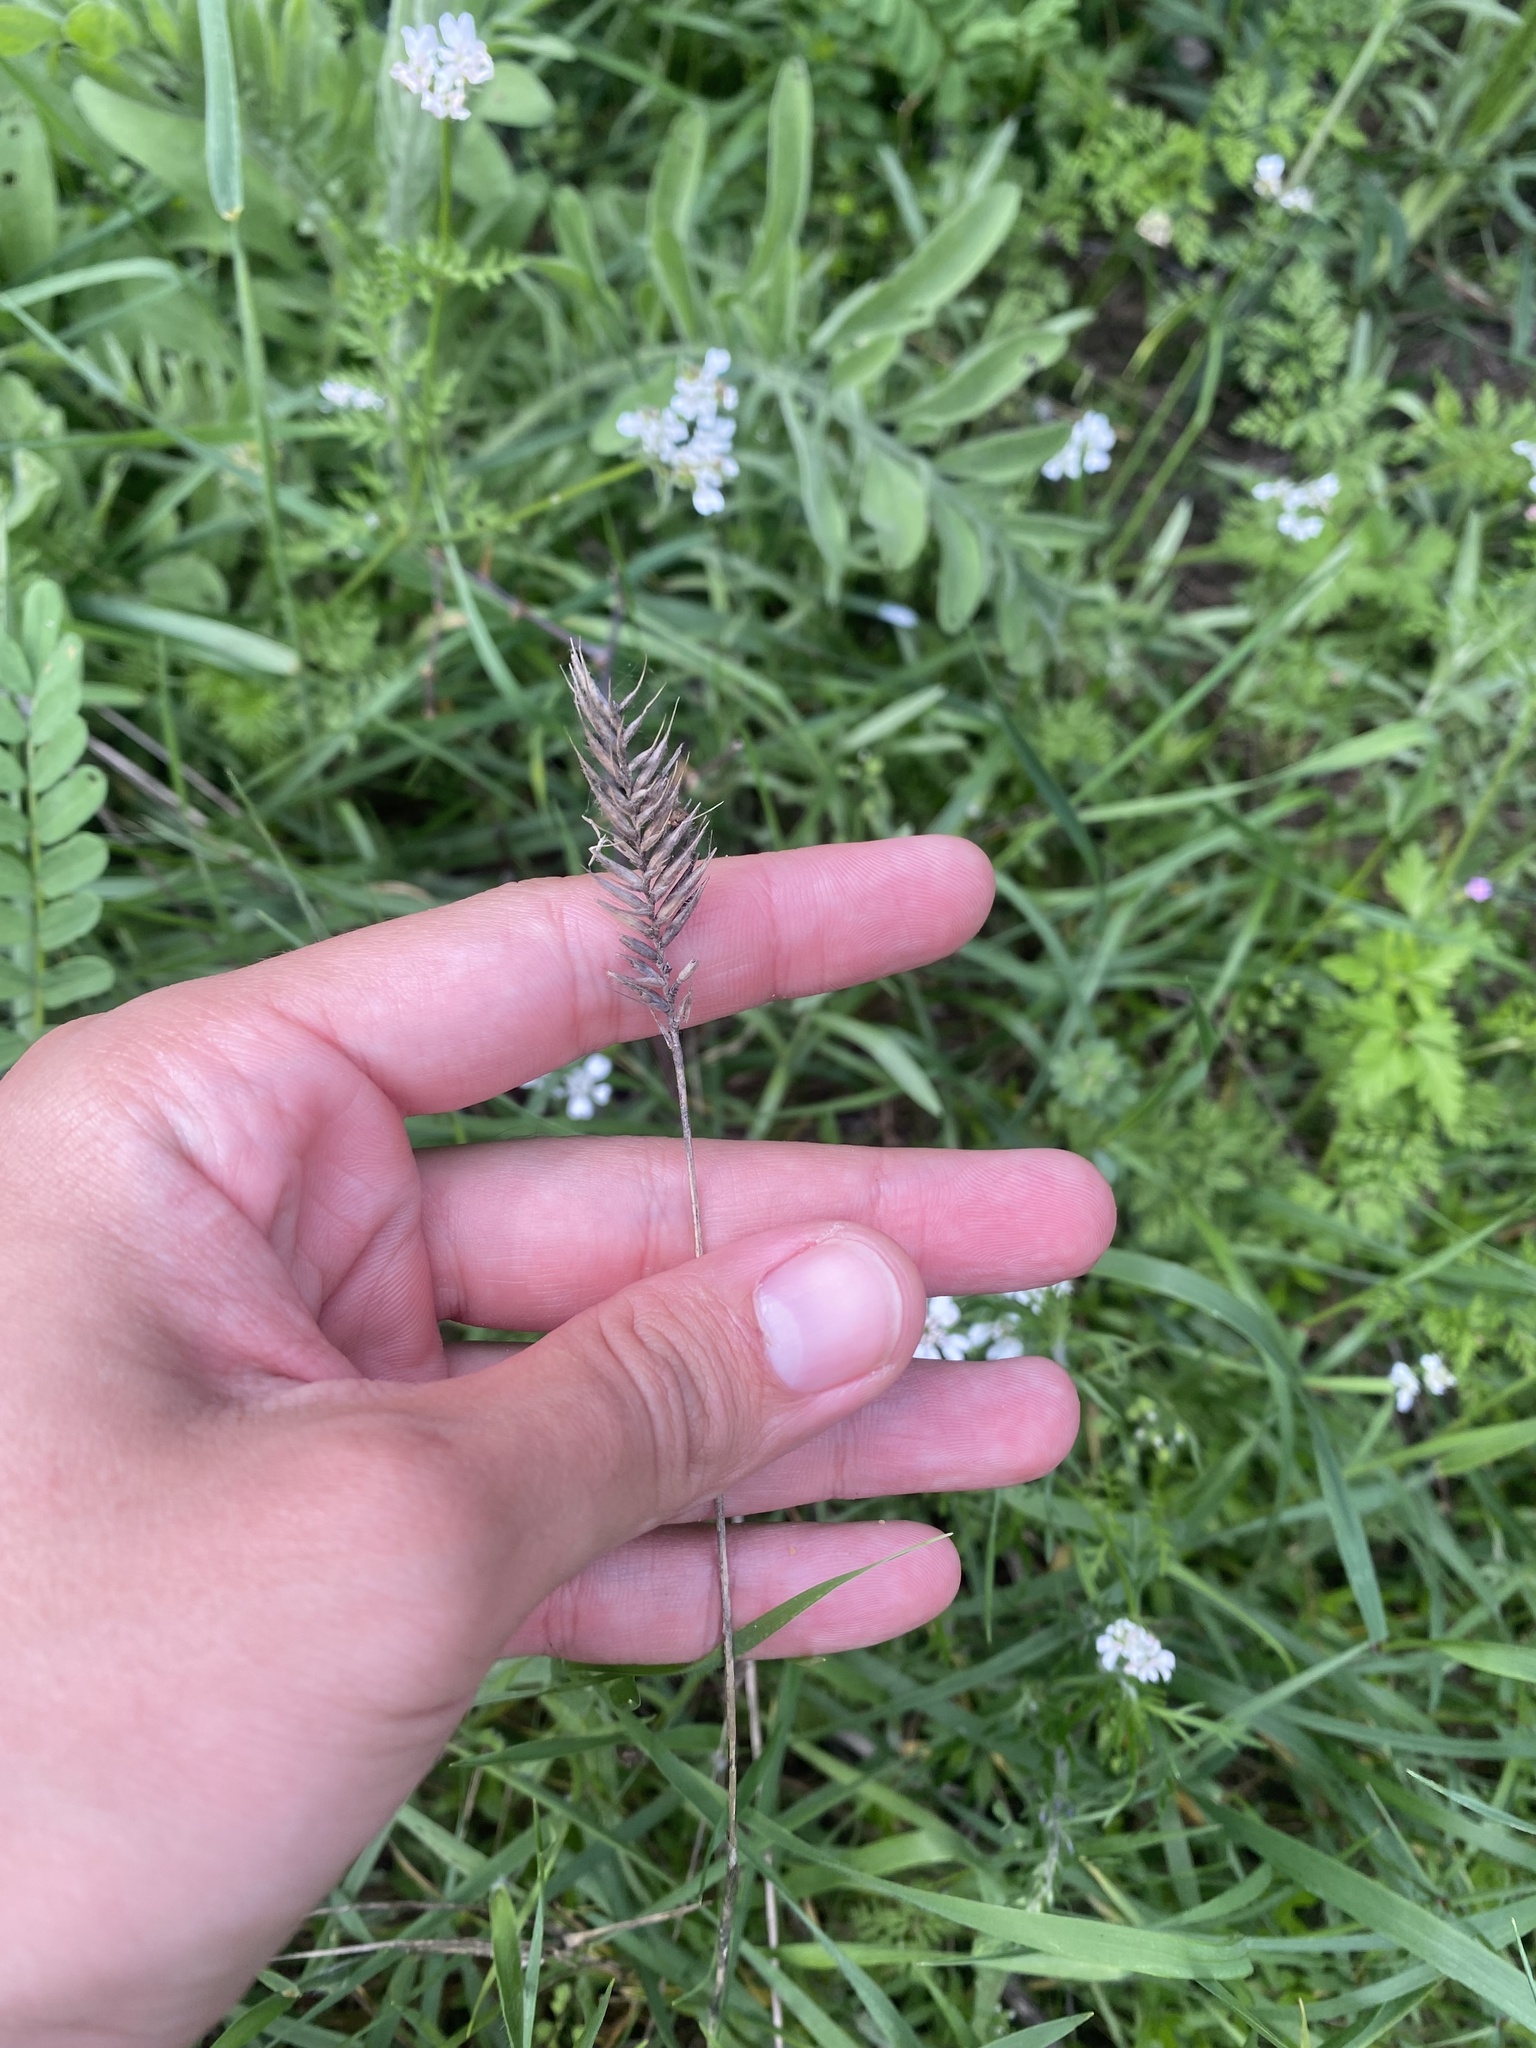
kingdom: Plantae
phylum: Tracheophyta
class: Liliopsida
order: Poales
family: Poaceae
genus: Agropyron
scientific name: Agropyron cristatum
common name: Crested wheatgrass
